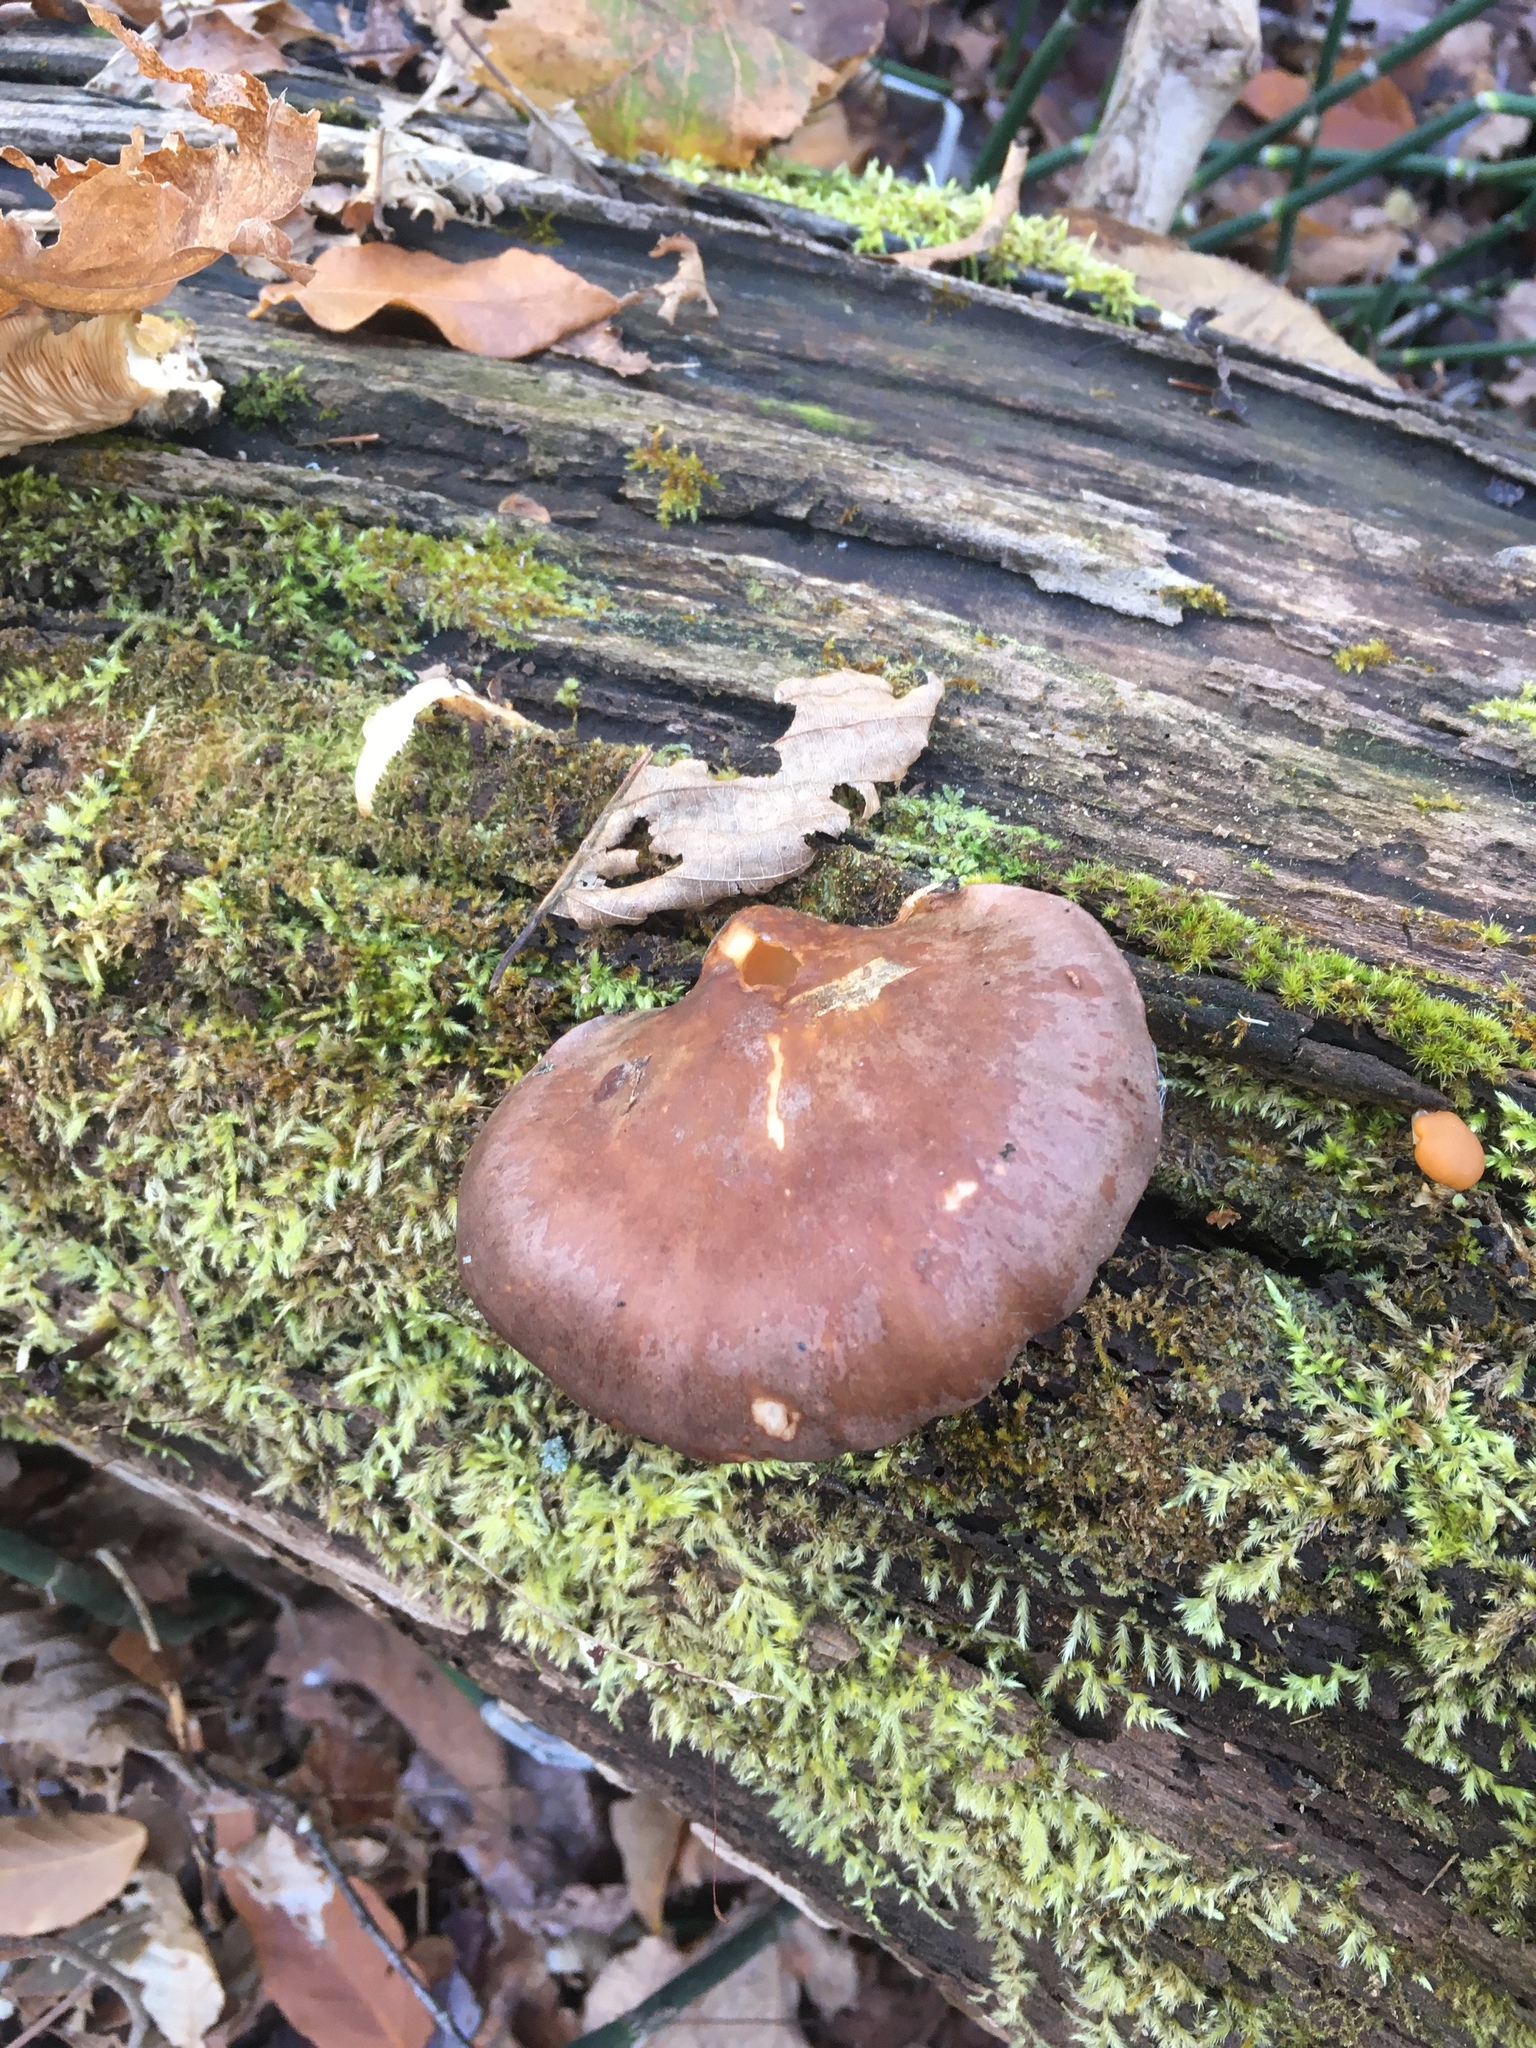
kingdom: Fungi
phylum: Basidiomycota
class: Agaricomycetes
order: Agaricales
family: Sarcomyxaceae
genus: Sarcomyxa
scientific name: Sarcomyxa serotina
